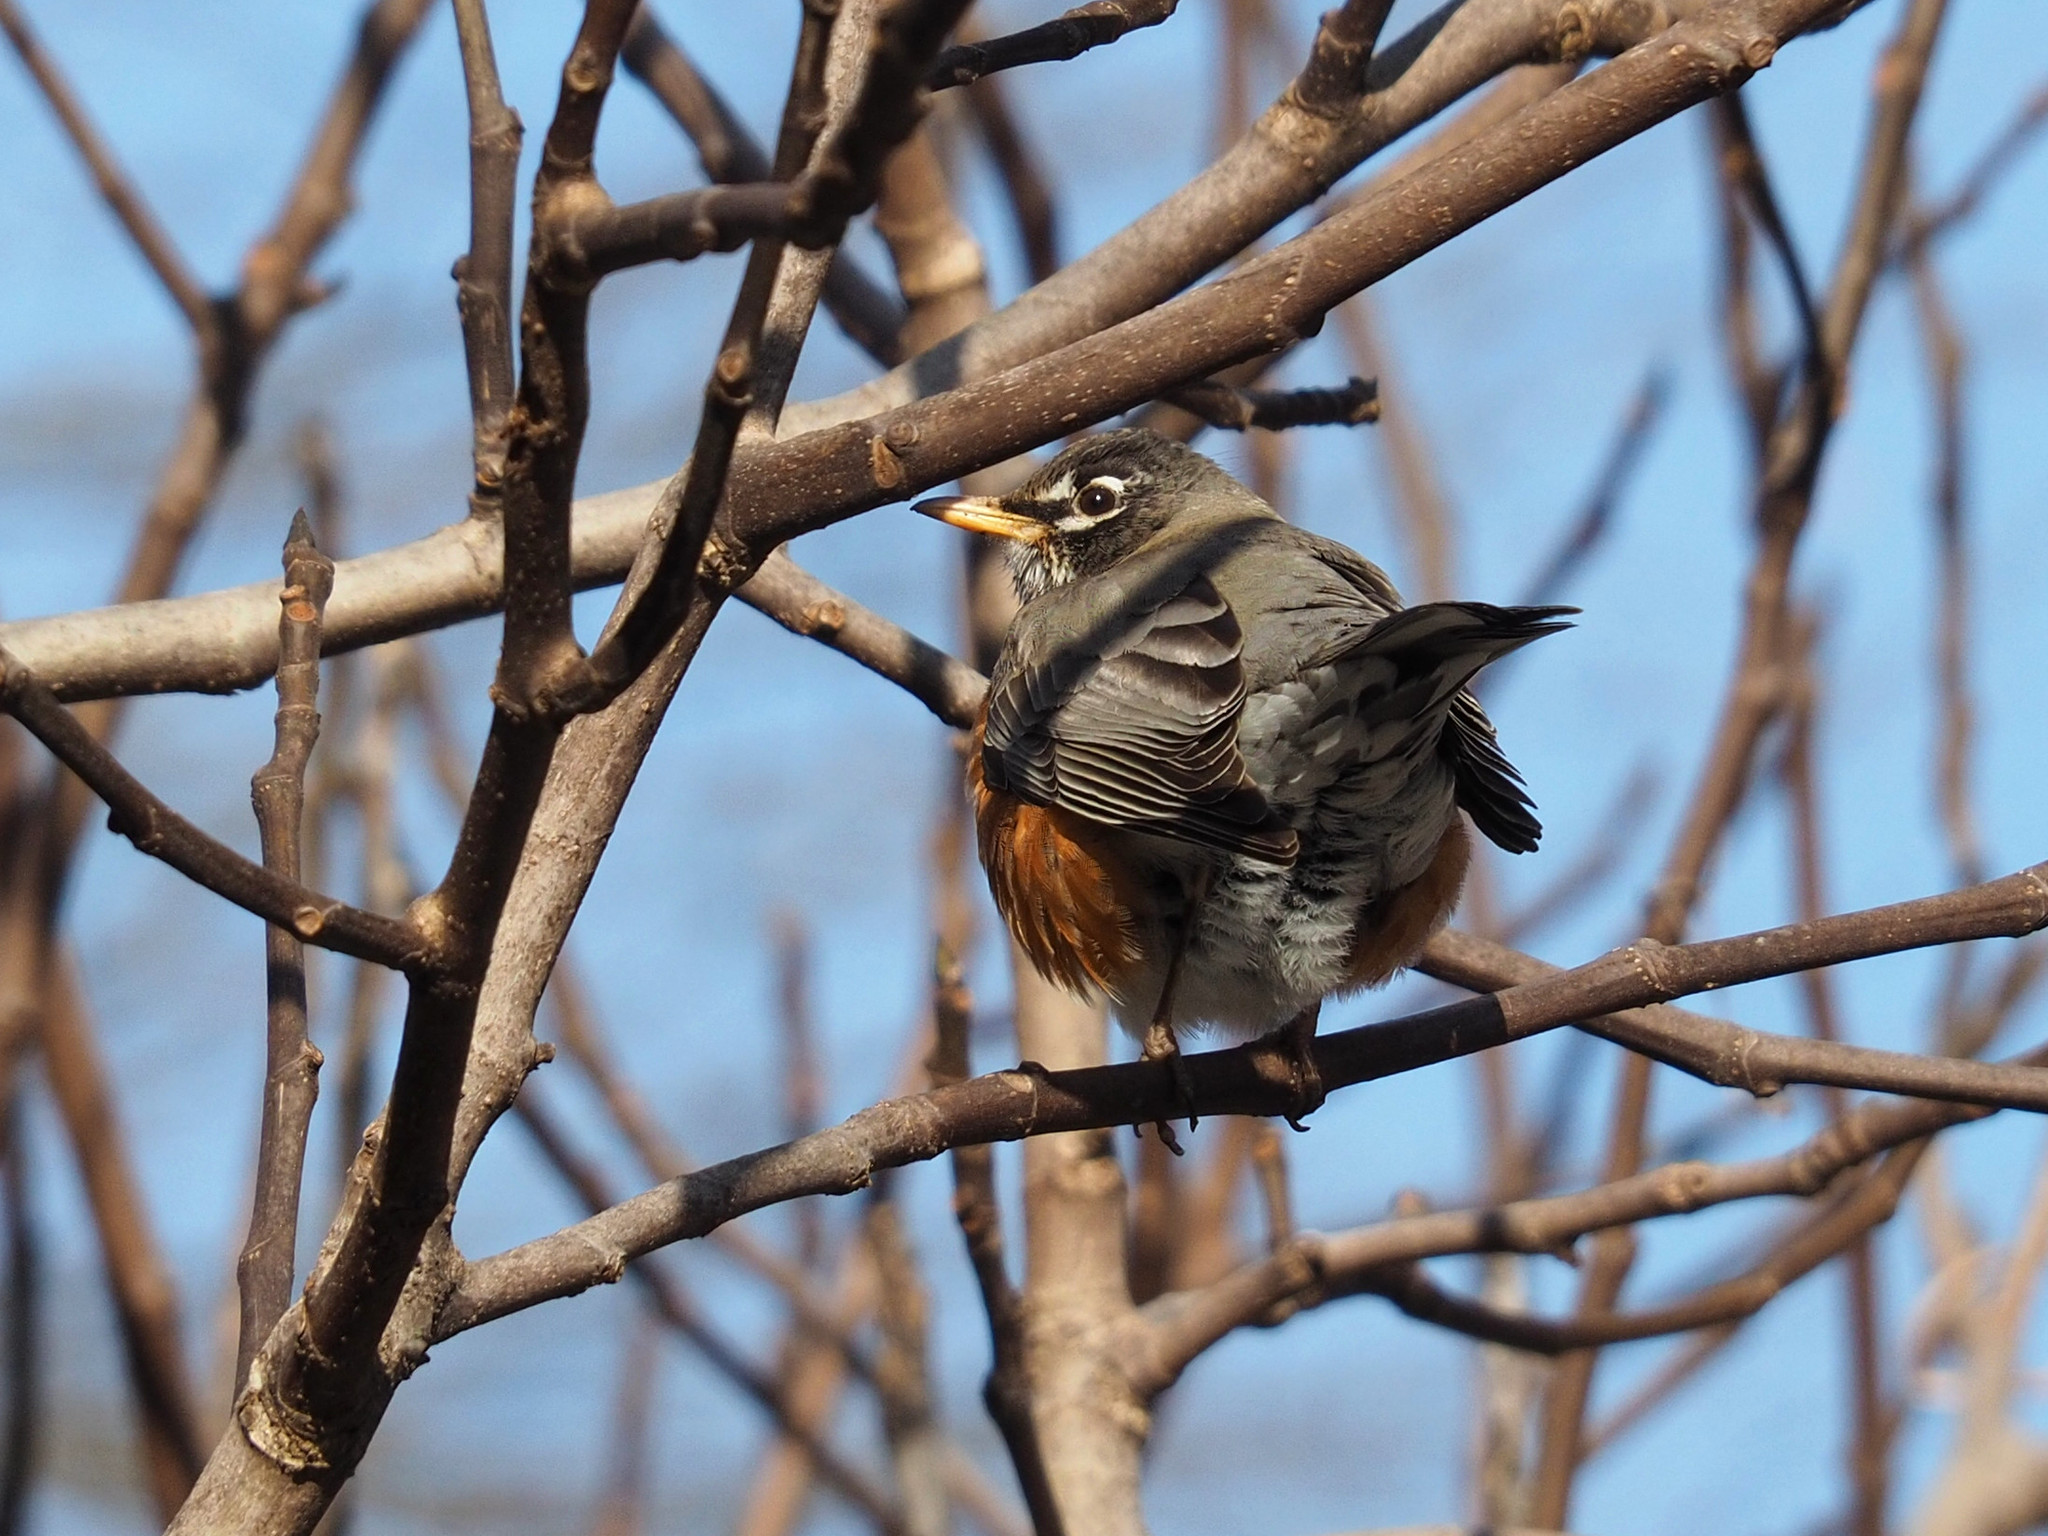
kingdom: Animalia
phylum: Chordata
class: Aves
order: Passeriformes
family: Turdidae
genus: Turdus
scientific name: Turdus migratorius
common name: American robin
